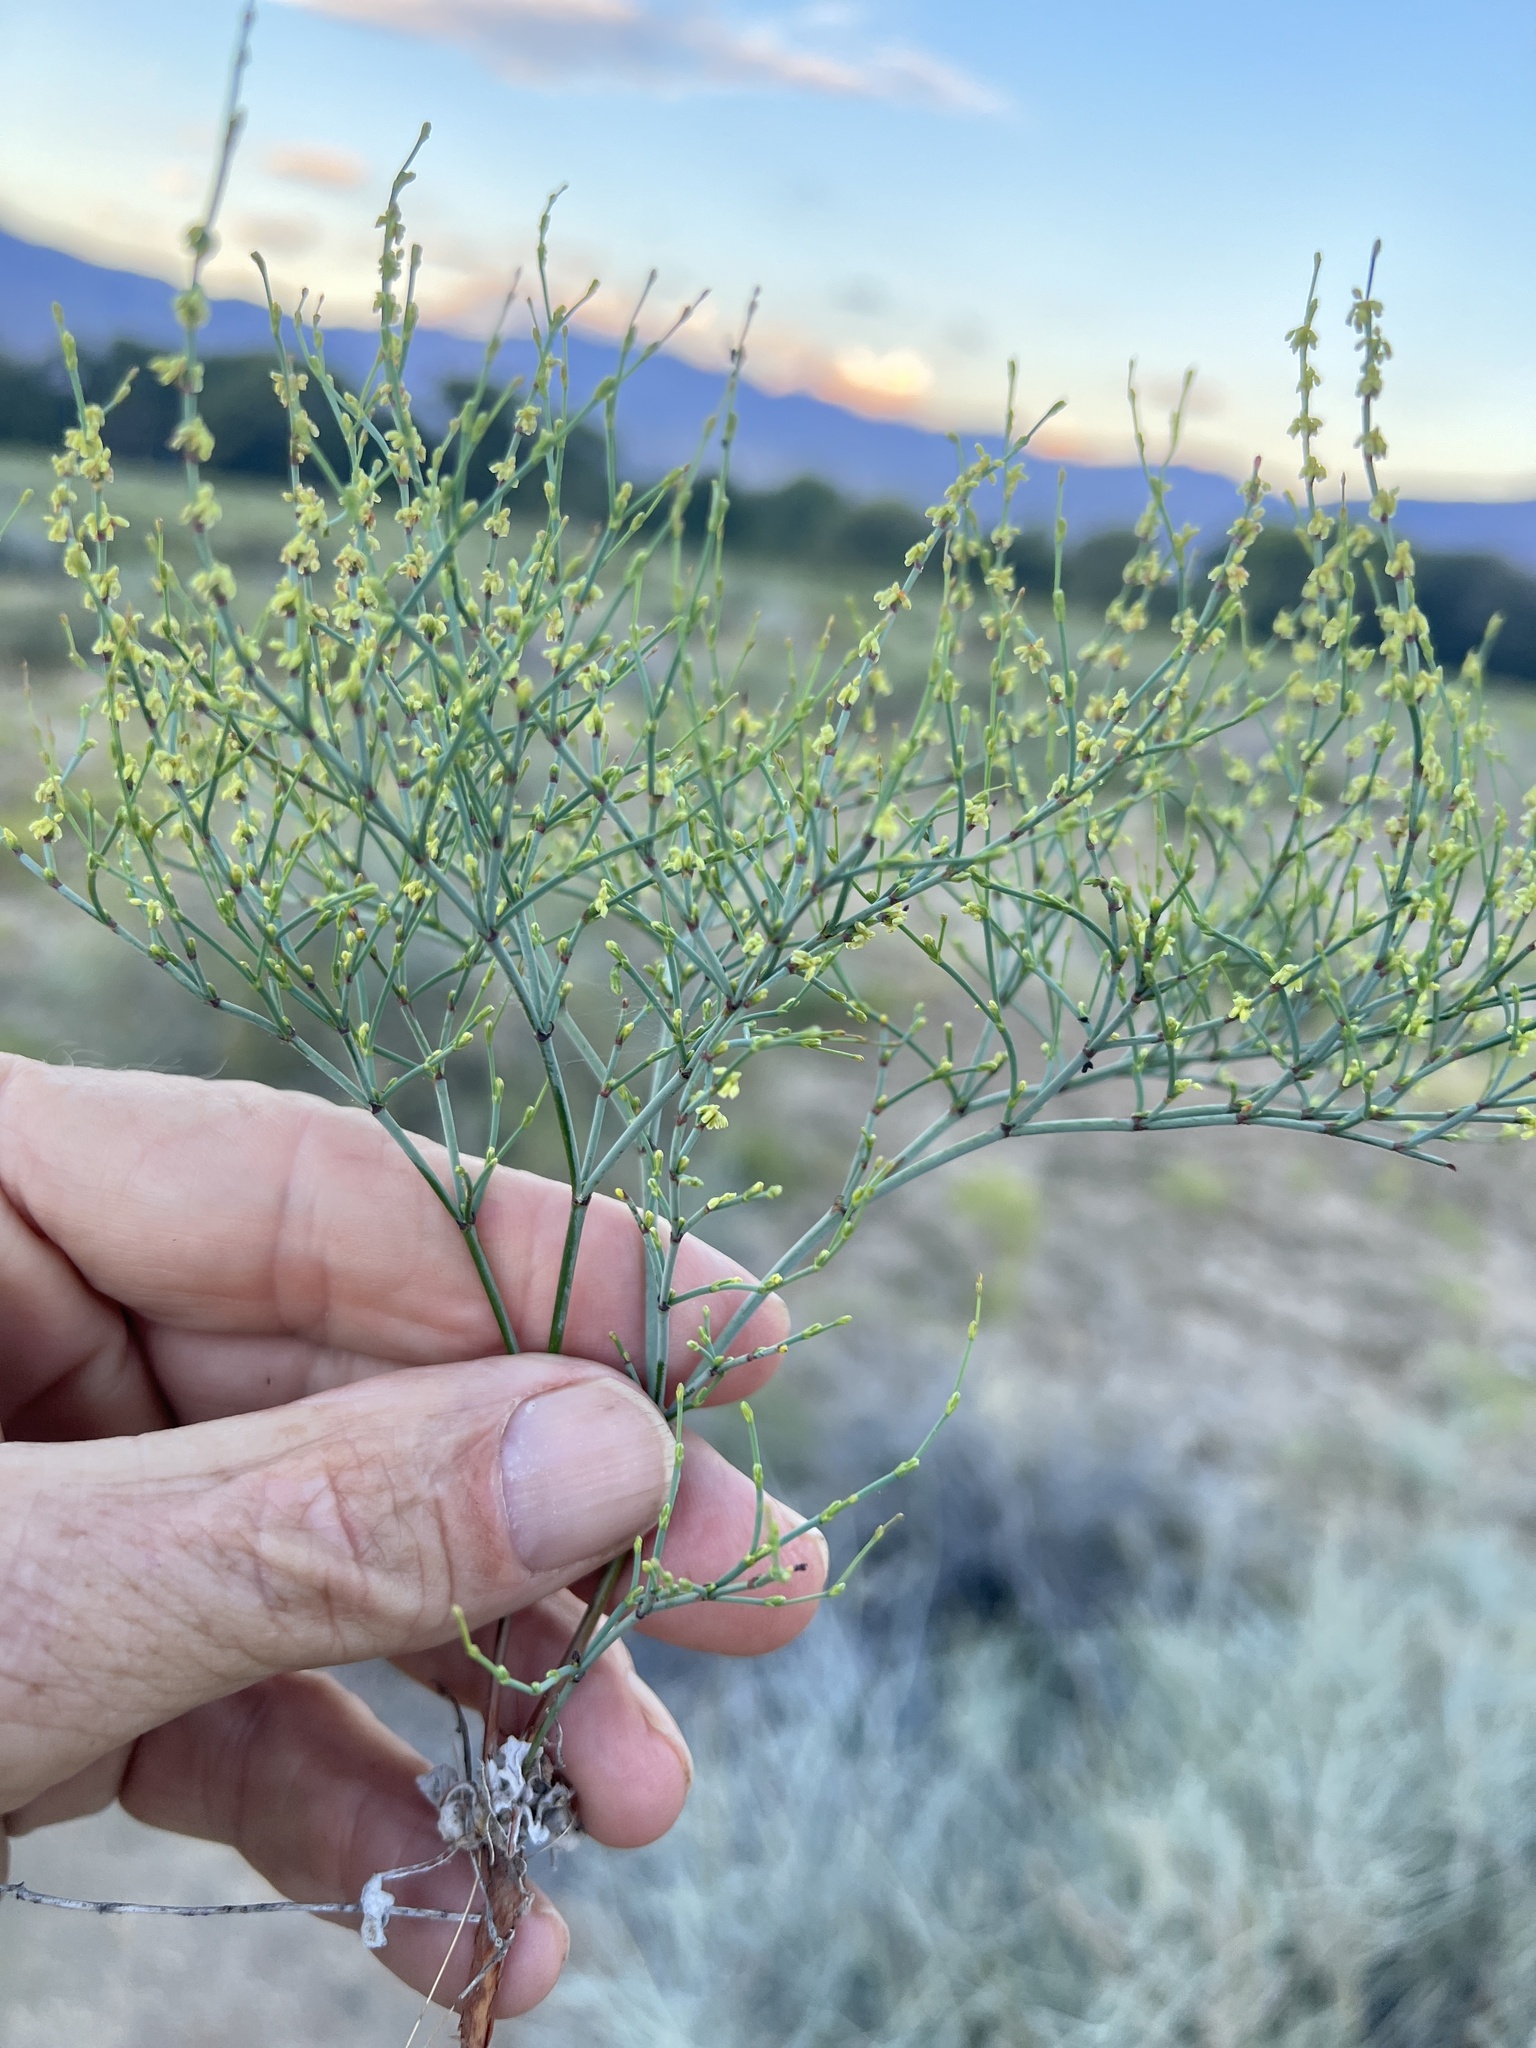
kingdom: Plantae
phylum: Tracheophyta
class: Magnoliopsida
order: Caryophyllales
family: Polygonaceae
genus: Eriogonum
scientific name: Eriogonum brachyanthum
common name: Short-flower wild buckwheat
